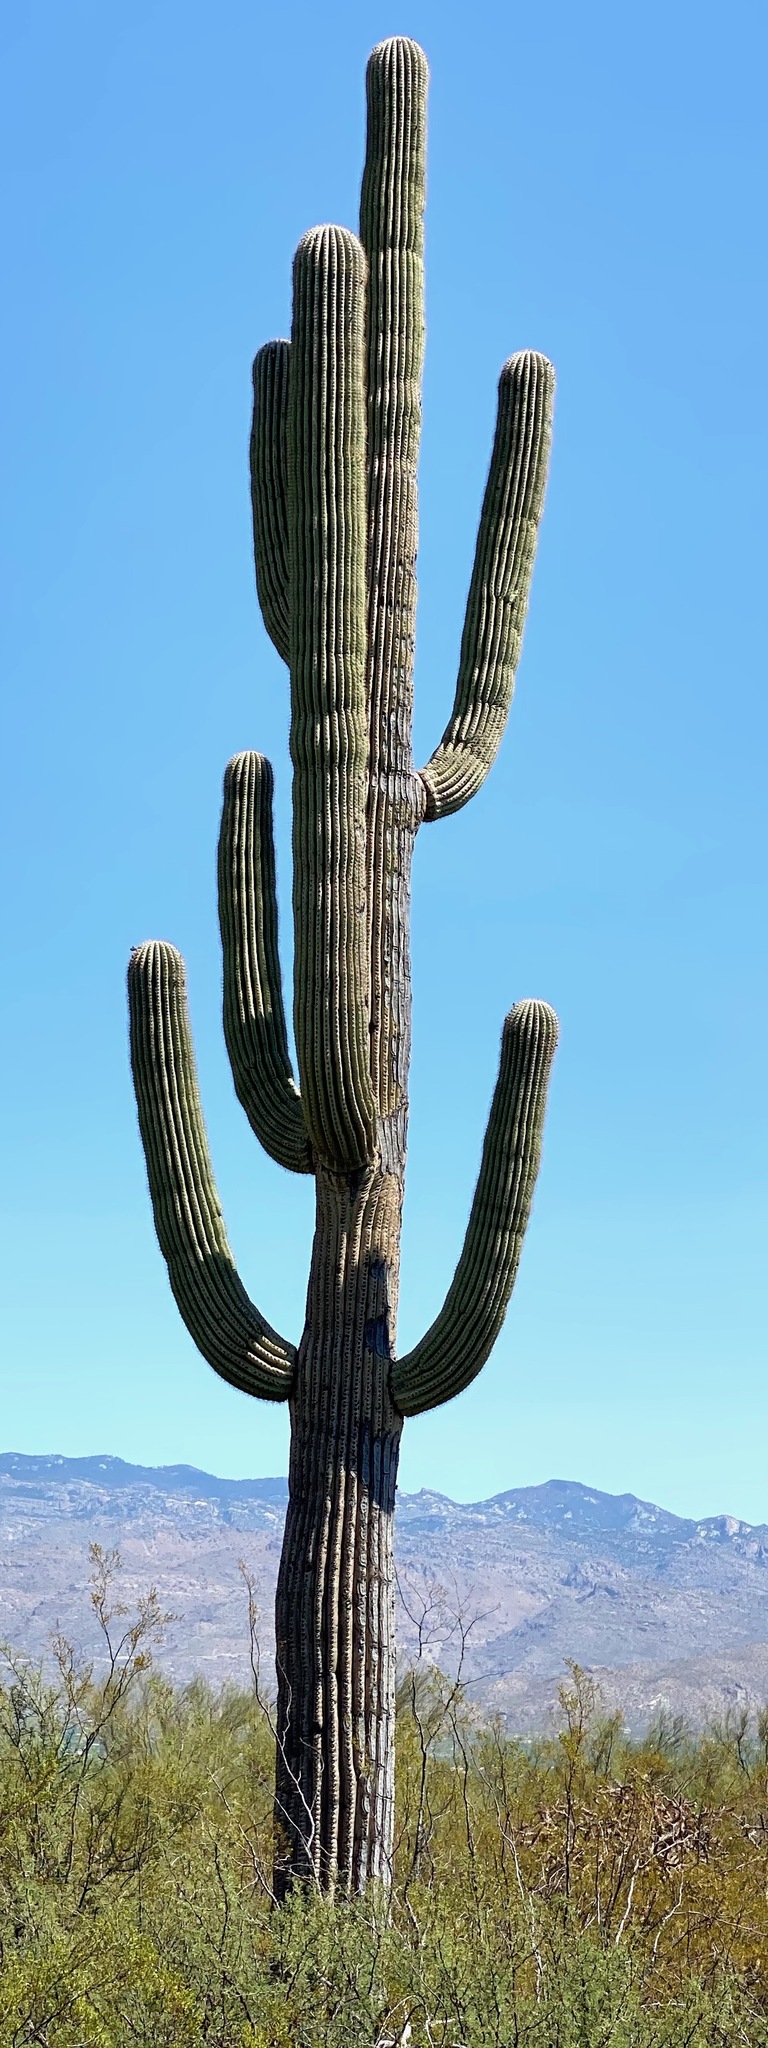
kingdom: Plantae
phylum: Tracheophyta
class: Magnoliopsida
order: Caryophyllales
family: Cactaceae
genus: Carnegiea
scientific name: Carnegiea gigantea
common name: Saguaro
